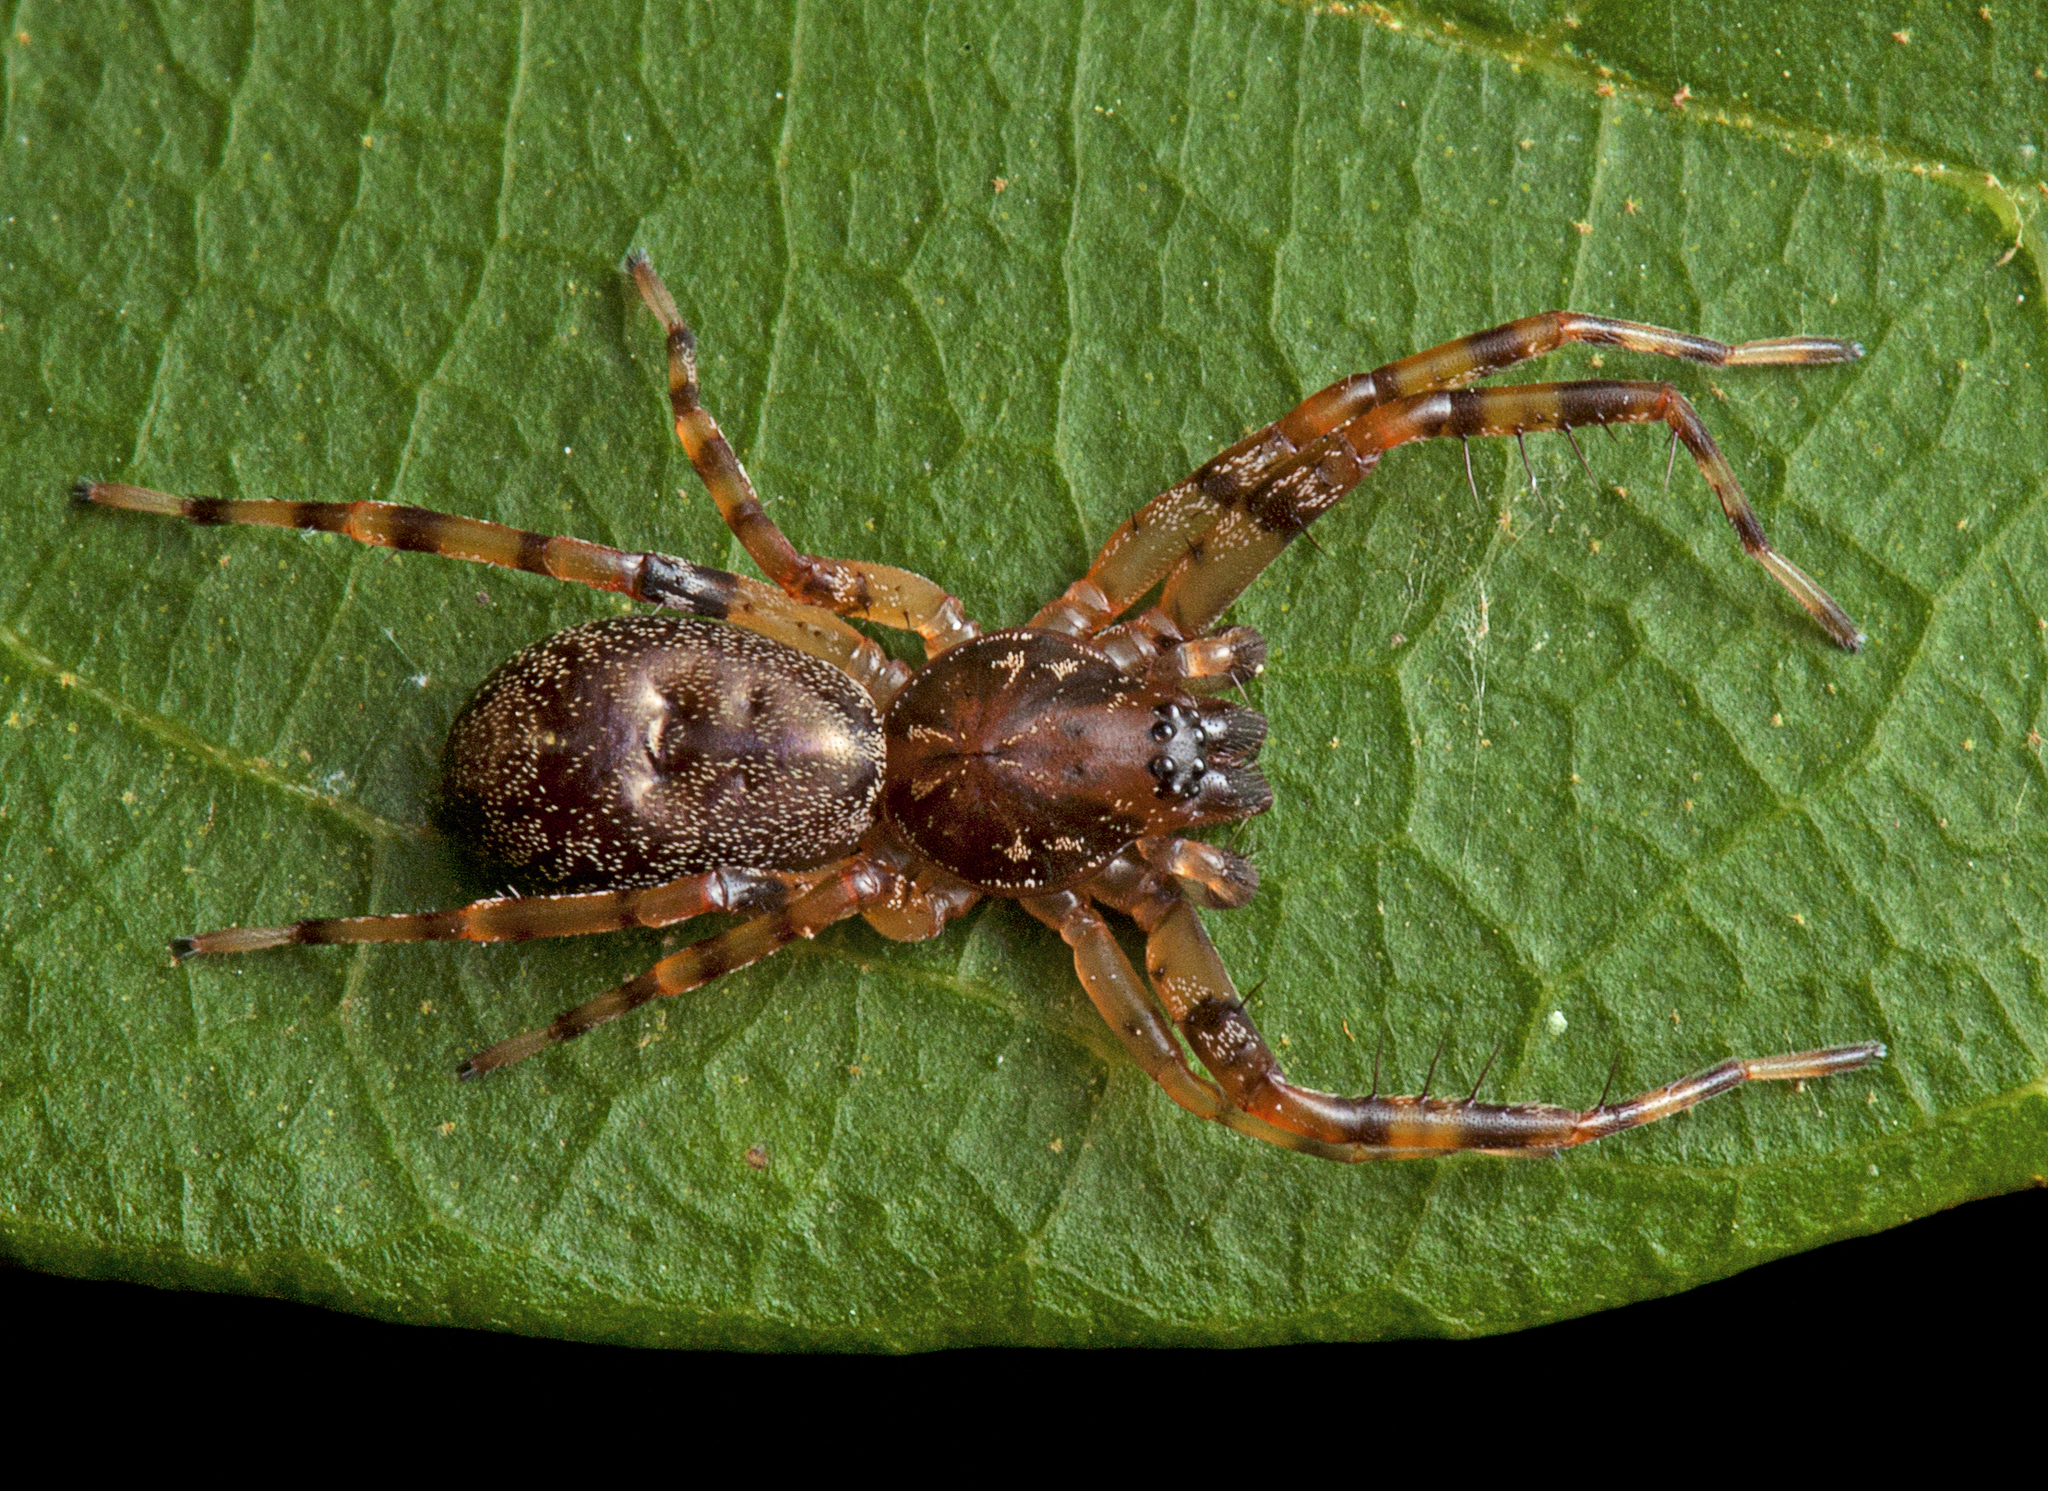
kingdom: Animalia
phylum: Arthropoda
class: Arachnida
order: Araneae
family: Corinnidae
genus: Battalus
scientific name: Battalus wallum
